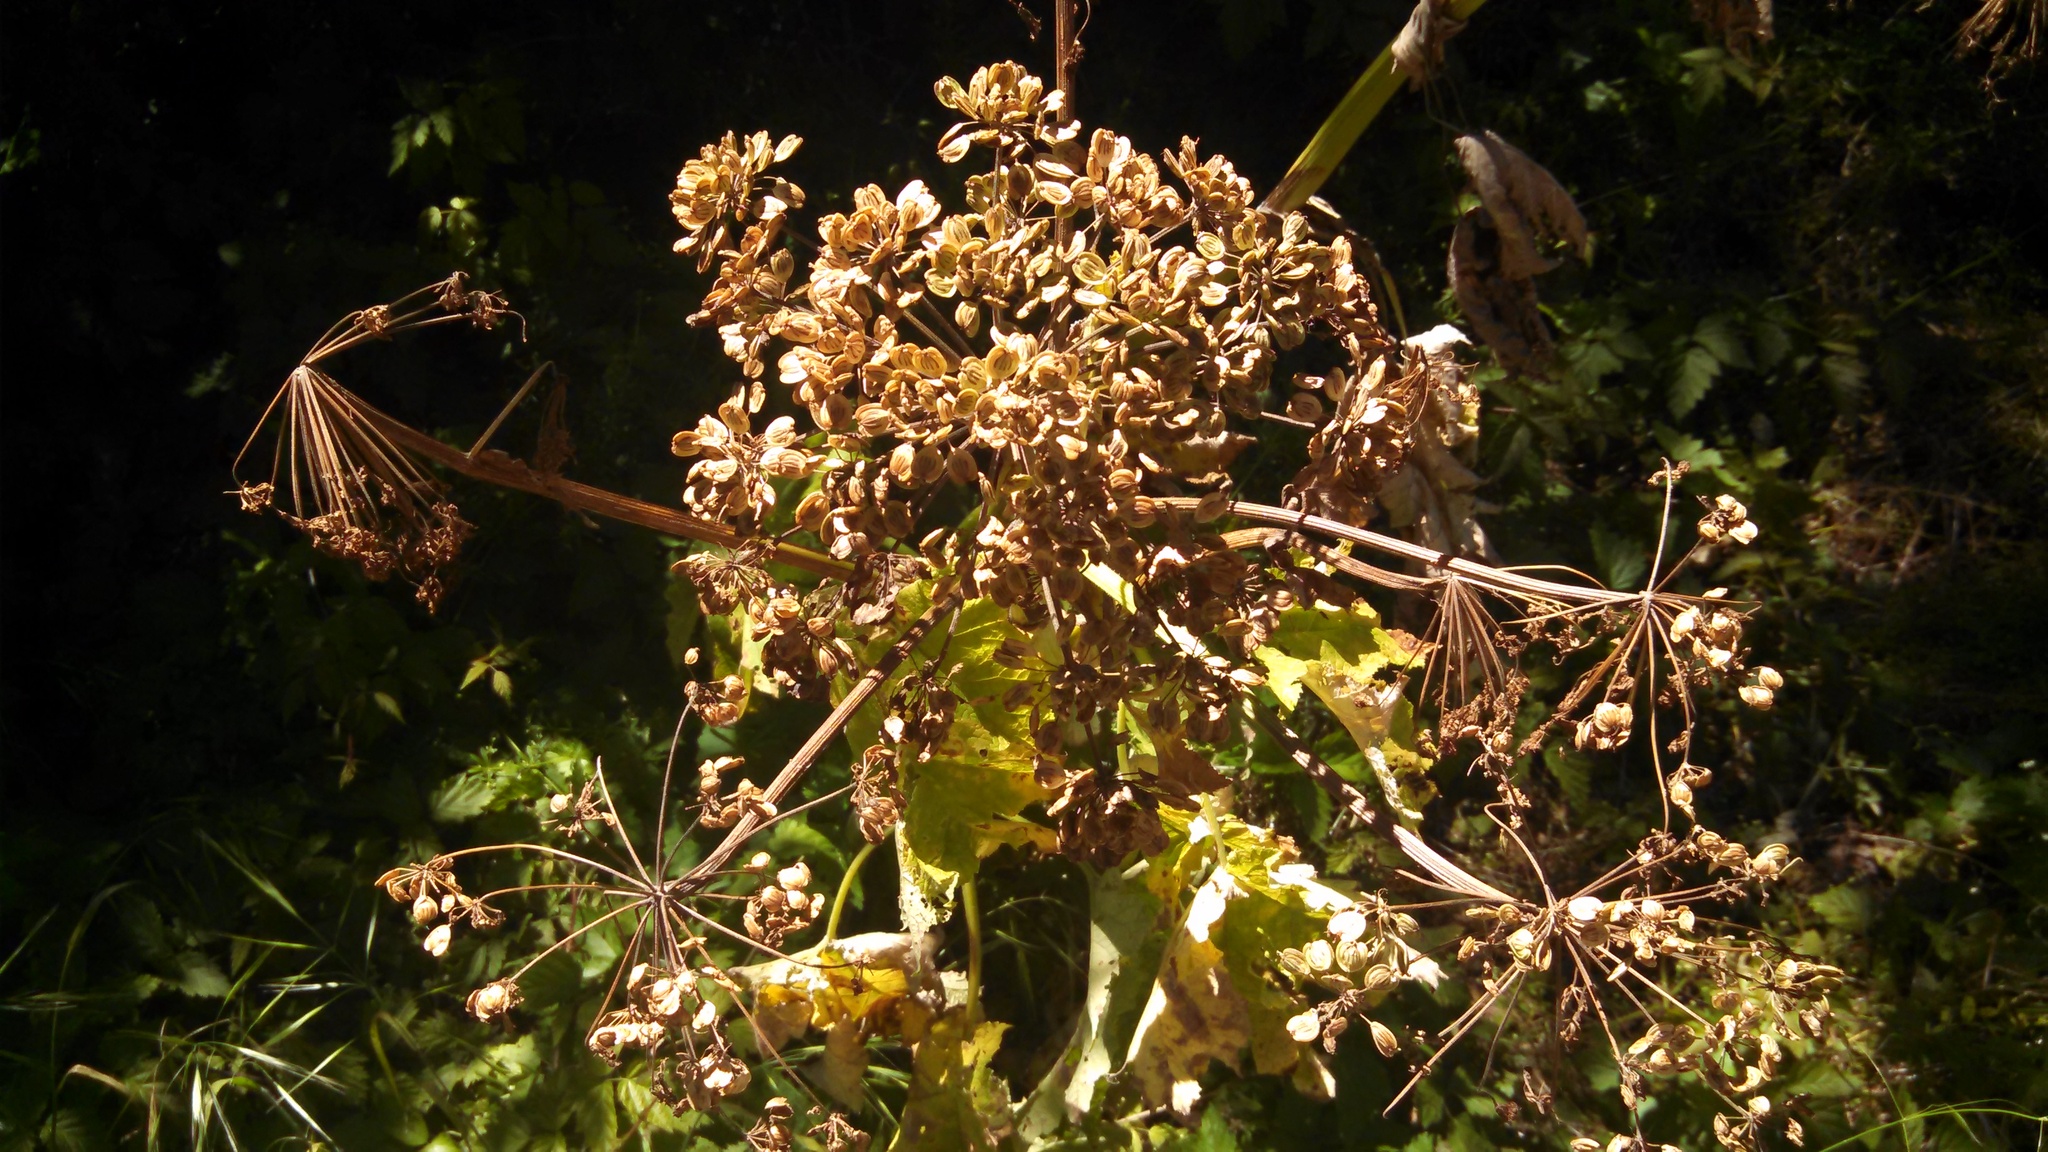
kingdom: Plantae
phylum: Tracheophyta
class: Magnoliopsida
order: Apiales
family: Apiaceae
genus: Heracleum
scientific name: Heracleum maximum
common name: American cow parsnip
